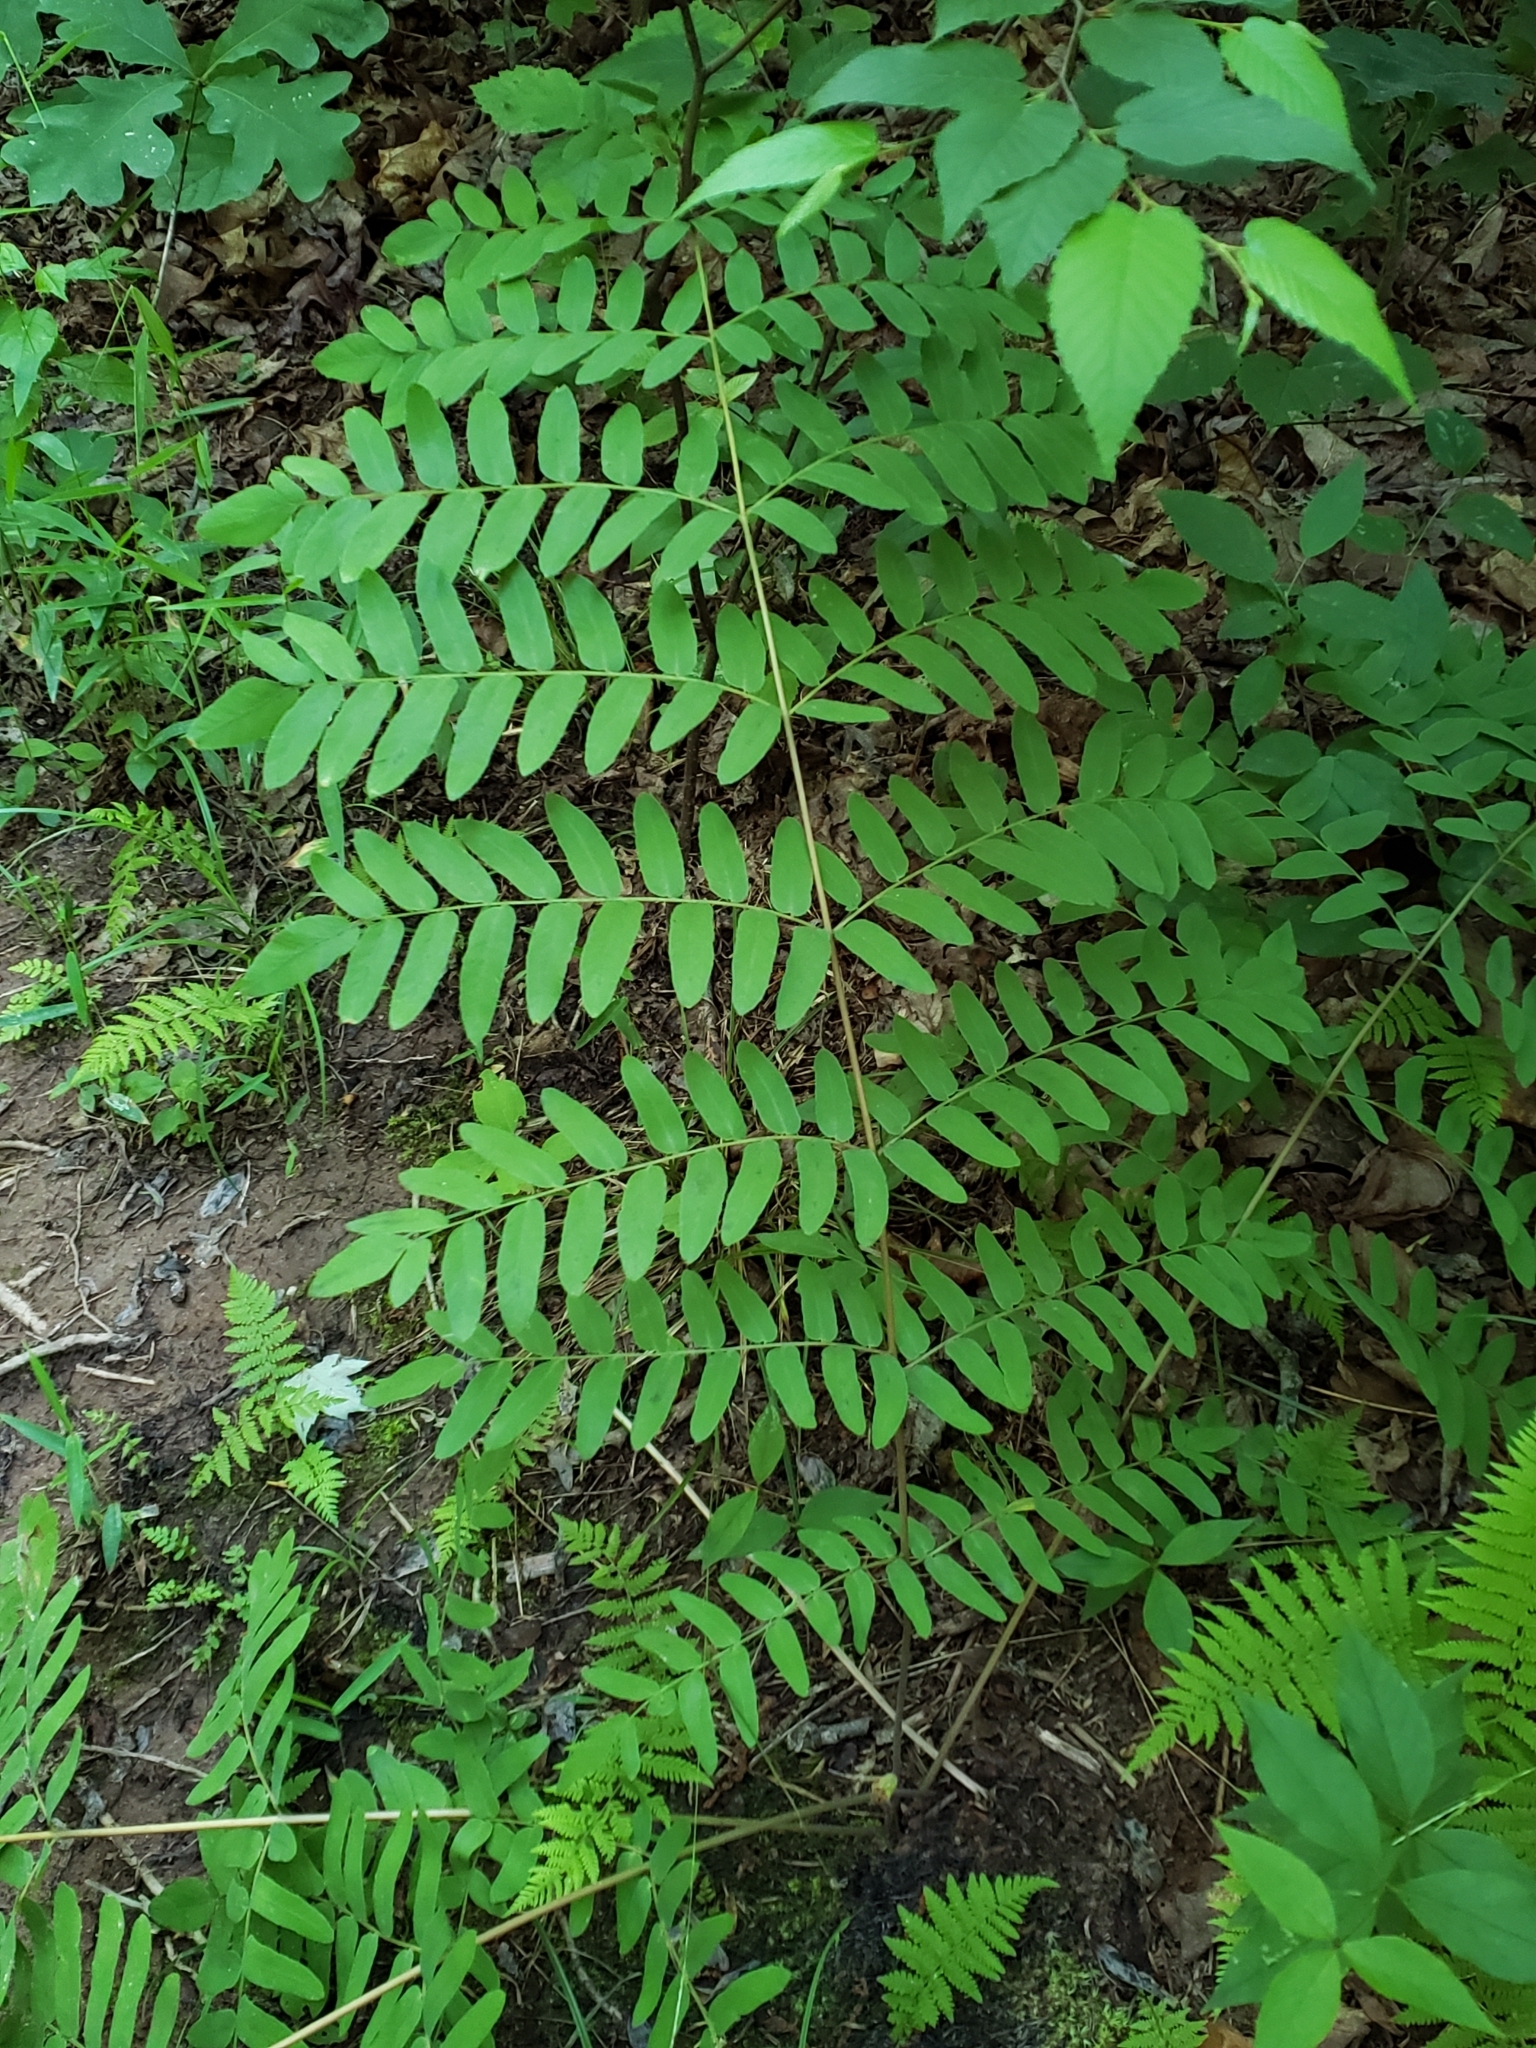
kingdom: Plantae
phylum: Tracheophyta
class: Polypodiopsida
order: Osmundales
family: Osmundaceae
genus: Osmunda
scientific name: Osmunda spectabilis
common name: American royal fern
